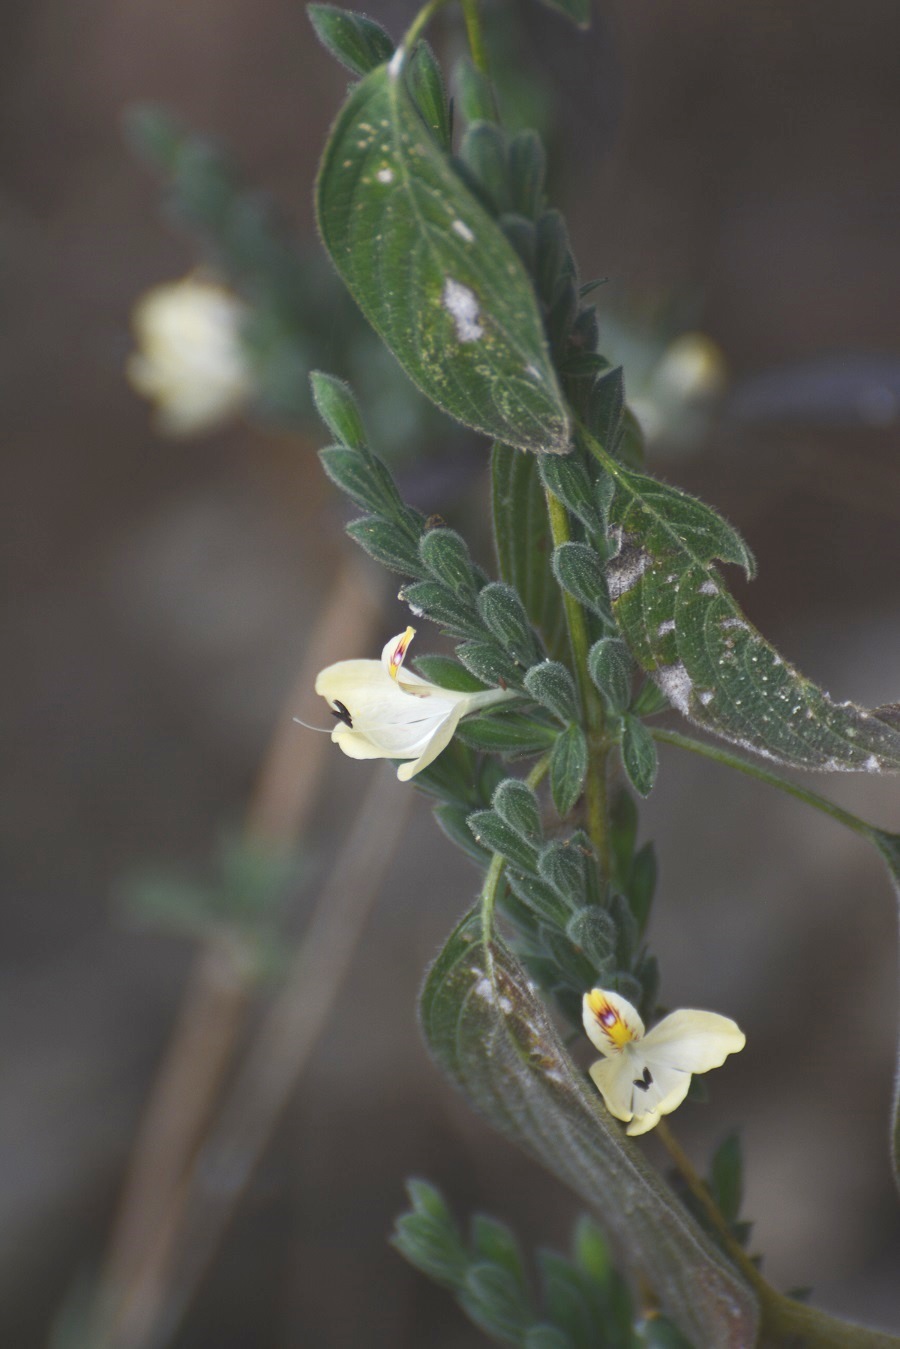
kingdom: Plantae
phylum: Tracheophyta
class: Magnoliopsida
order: Lamiales
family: Acanthaceae
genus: Henrya
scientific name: Henrya insularis
